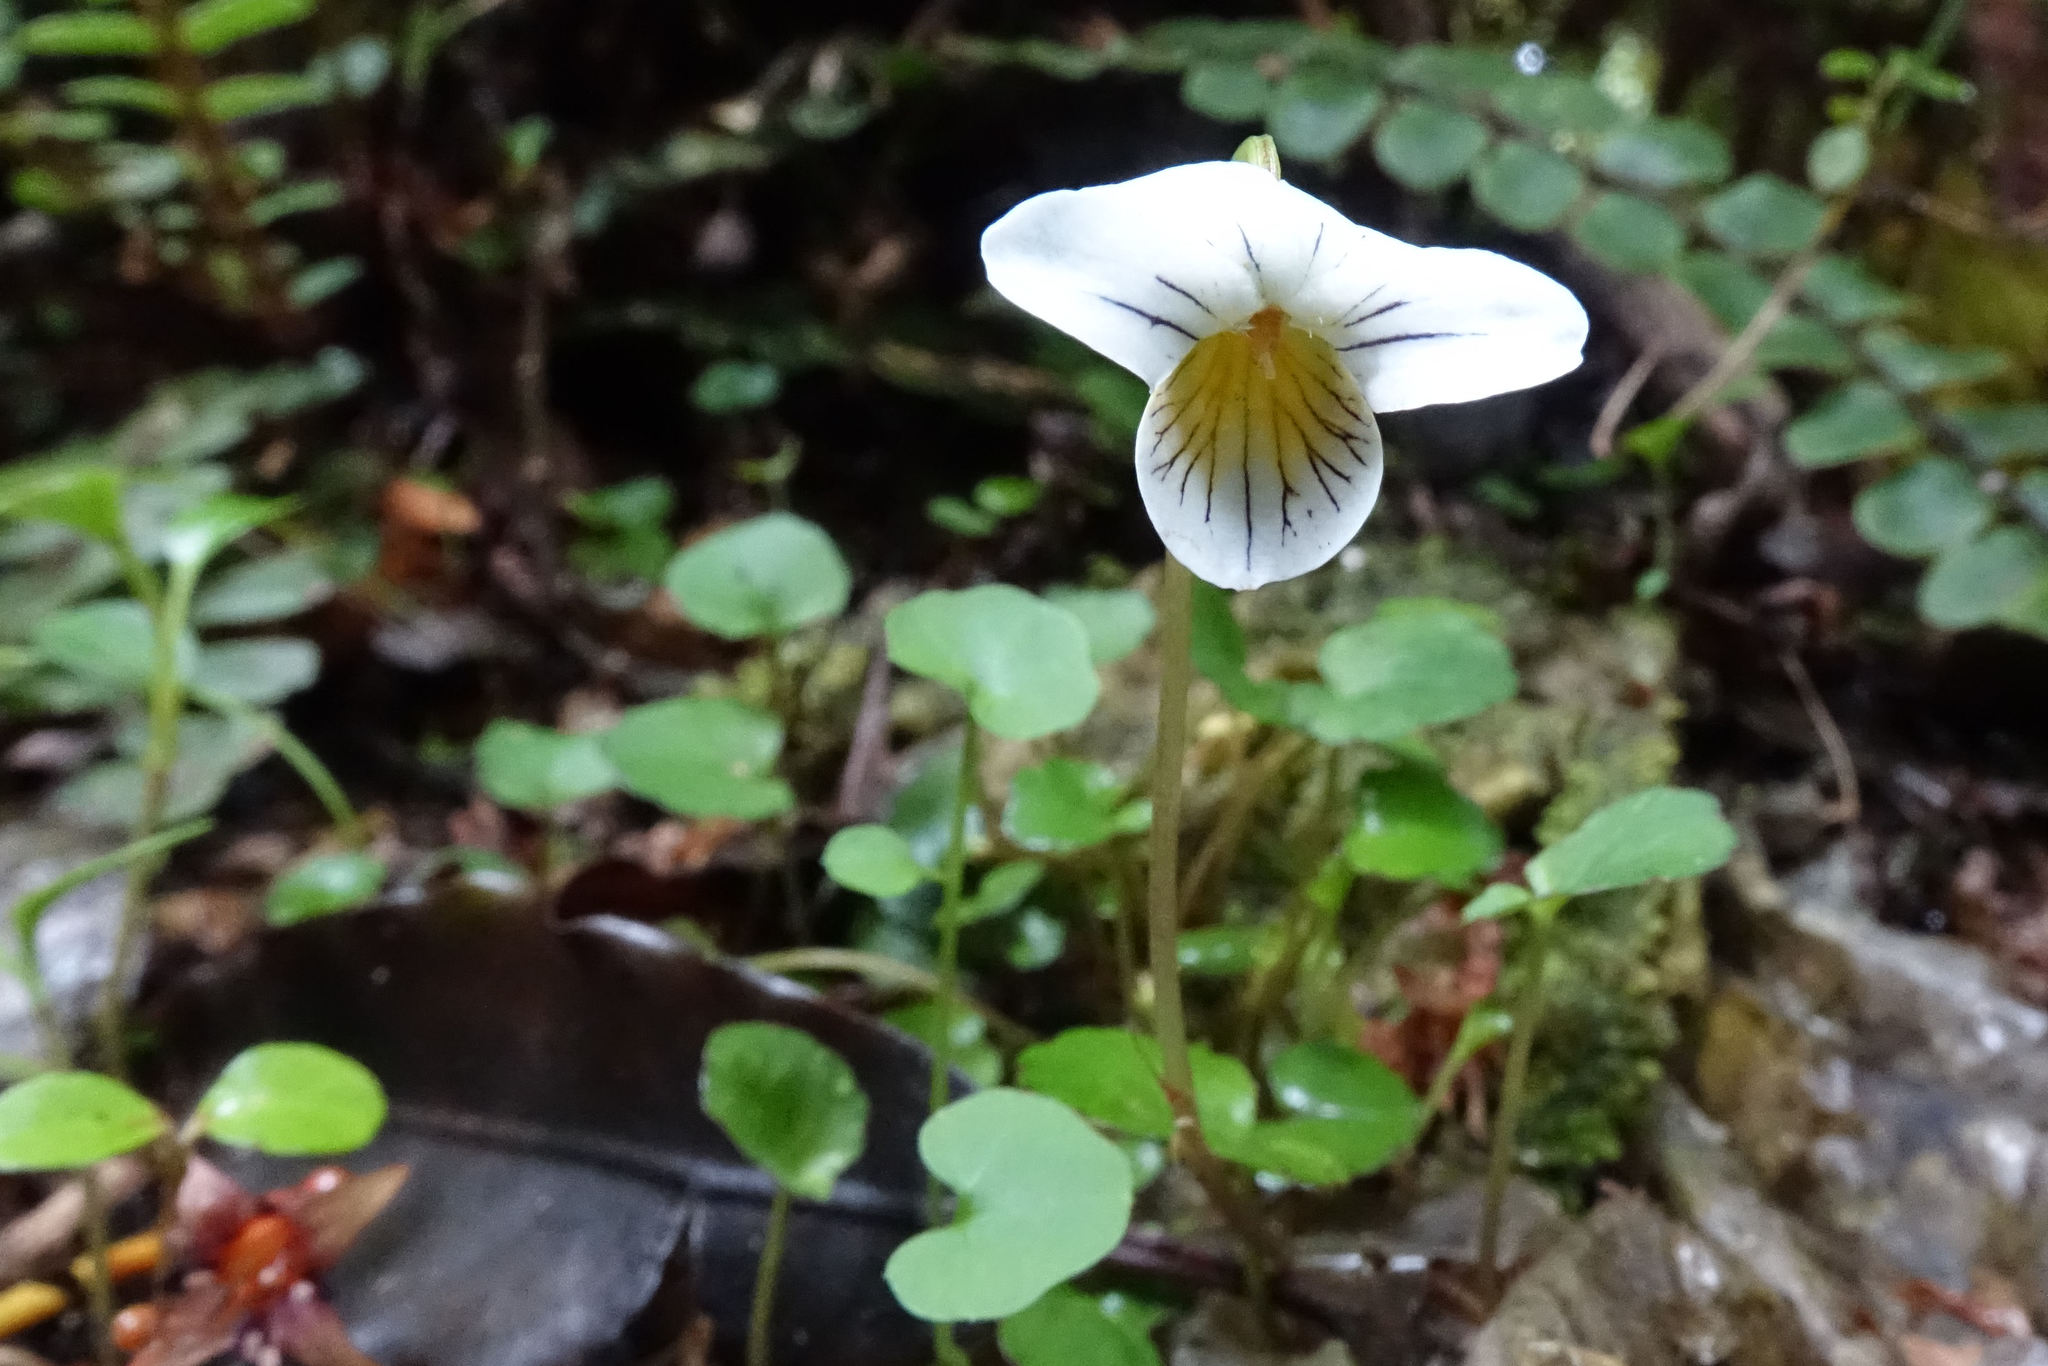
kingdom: Plantae
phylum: Tracheophyta
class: Magnoliopsida
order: Malpighiales
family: Violaceae
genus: Viola
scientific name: Viola filicaulis
